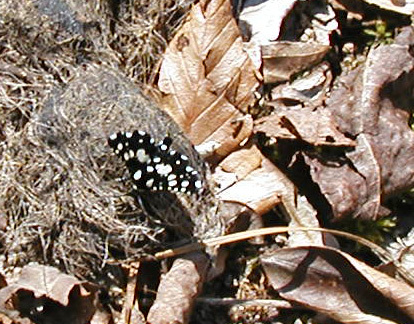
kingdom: Animalia
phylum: Arthropoda
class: Insecta
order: Lepidoptera
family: Thyrididae
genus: Pseudothyris
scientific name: Pseudothyris sepulchralis
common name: Mournful thyris moth
